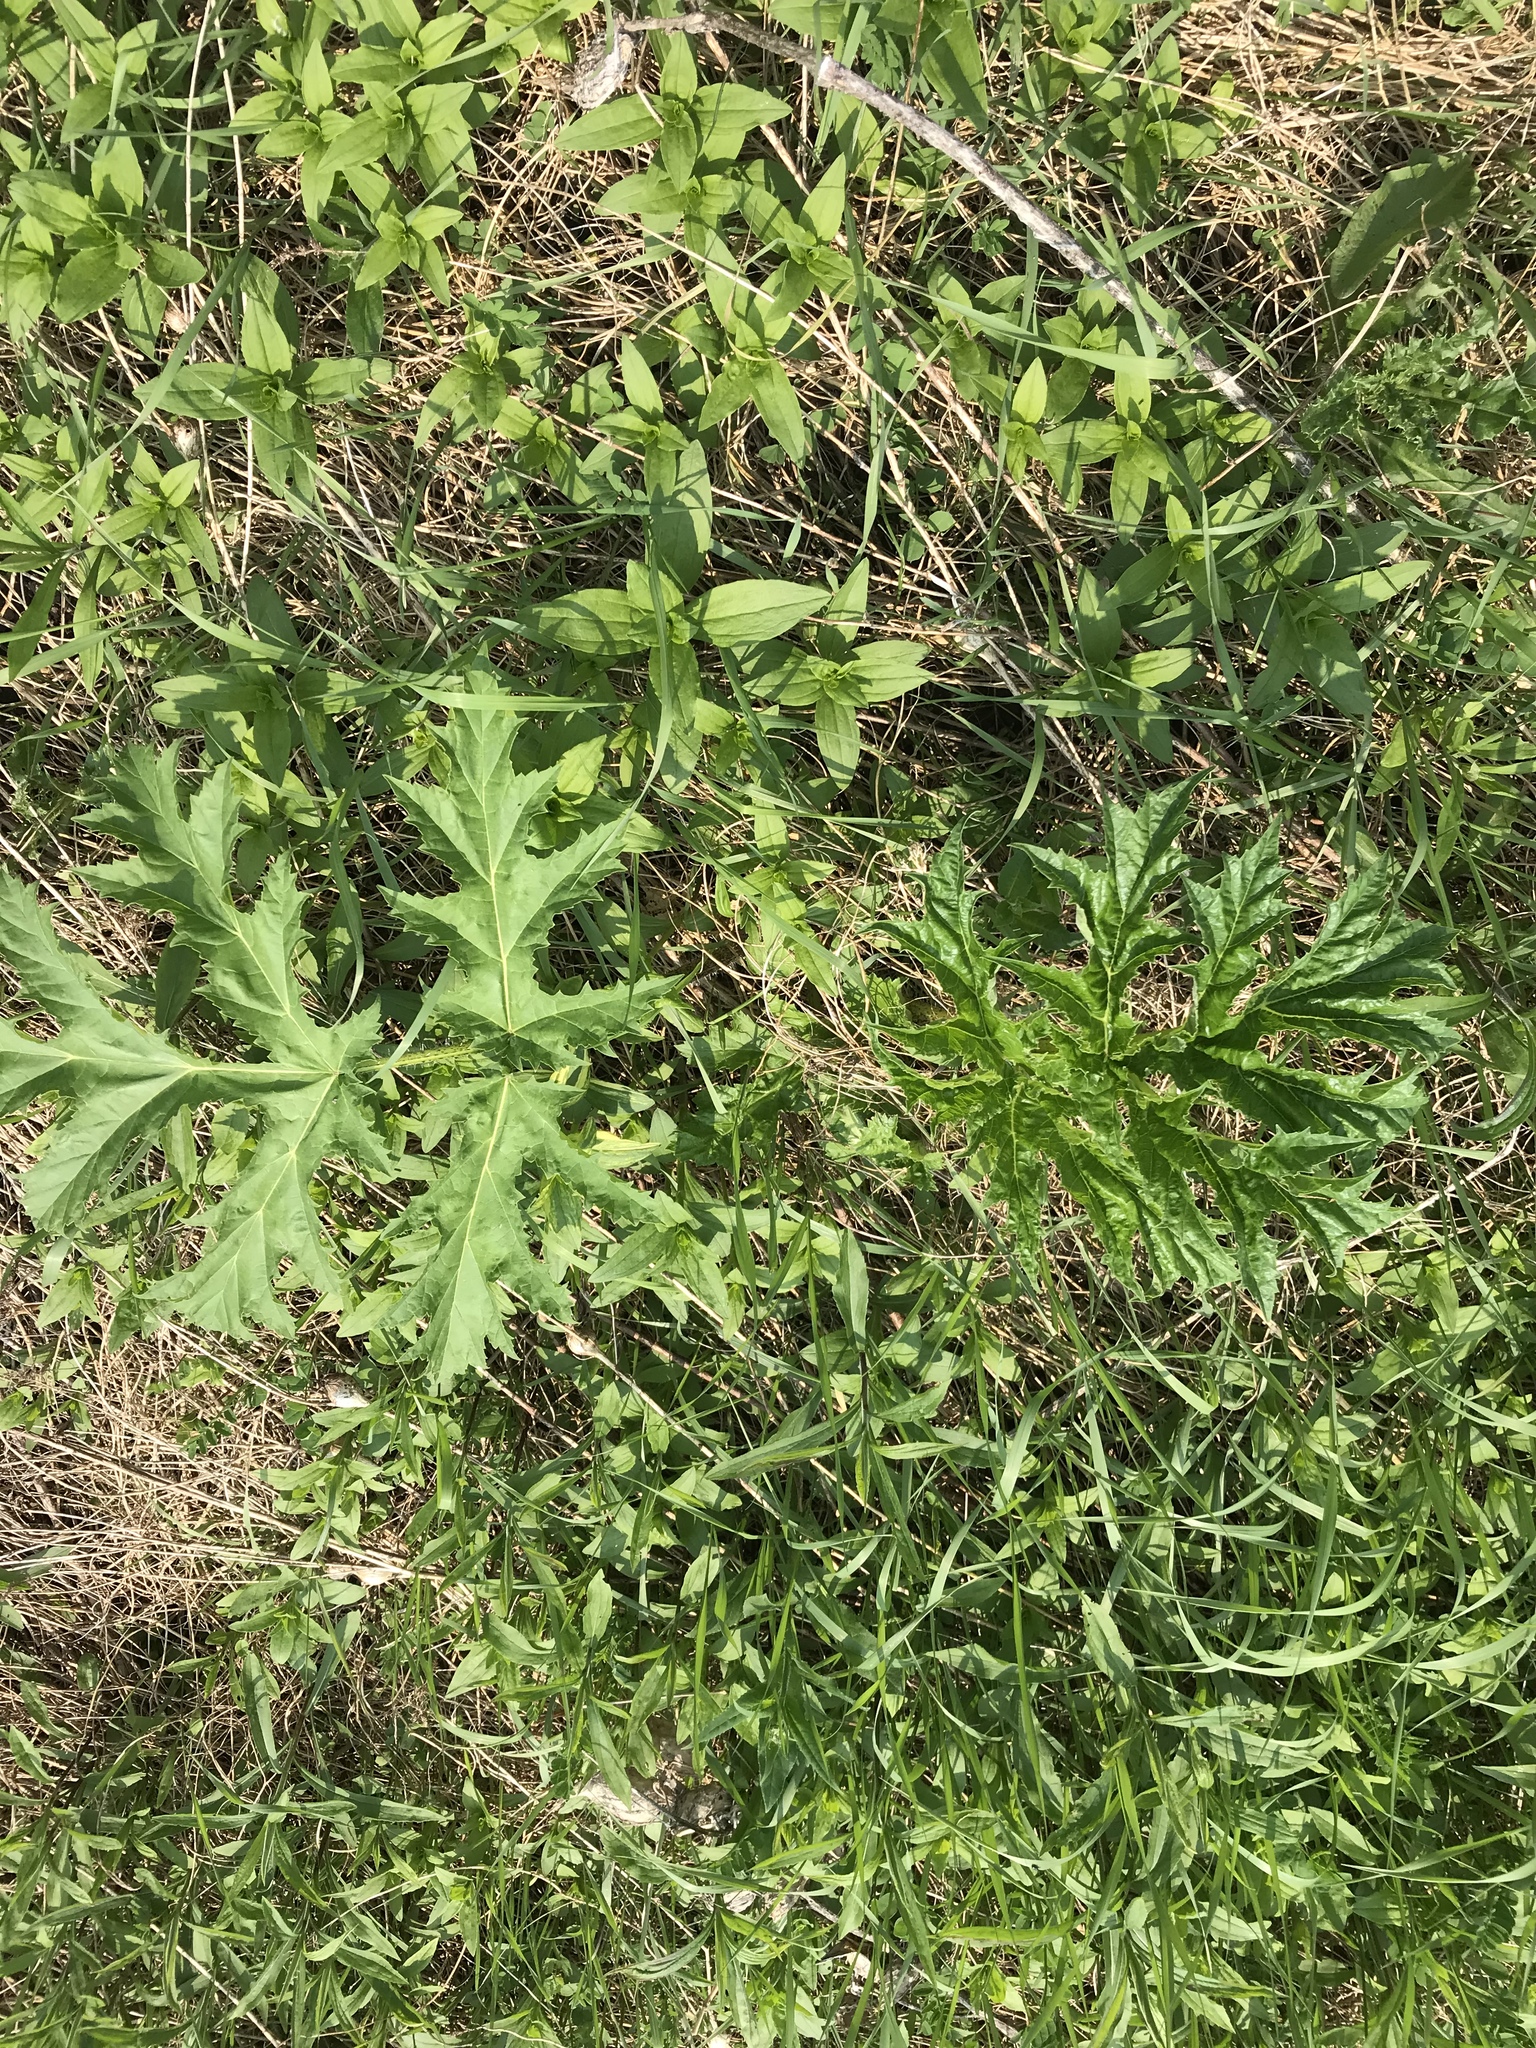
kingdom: Plantae
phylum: Tracheophyta
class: Magnoliopsida
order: Apiales
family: Apiaceae
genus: Heracleum
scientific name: Heracleum mantegazzianum
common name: Giant hogweed
